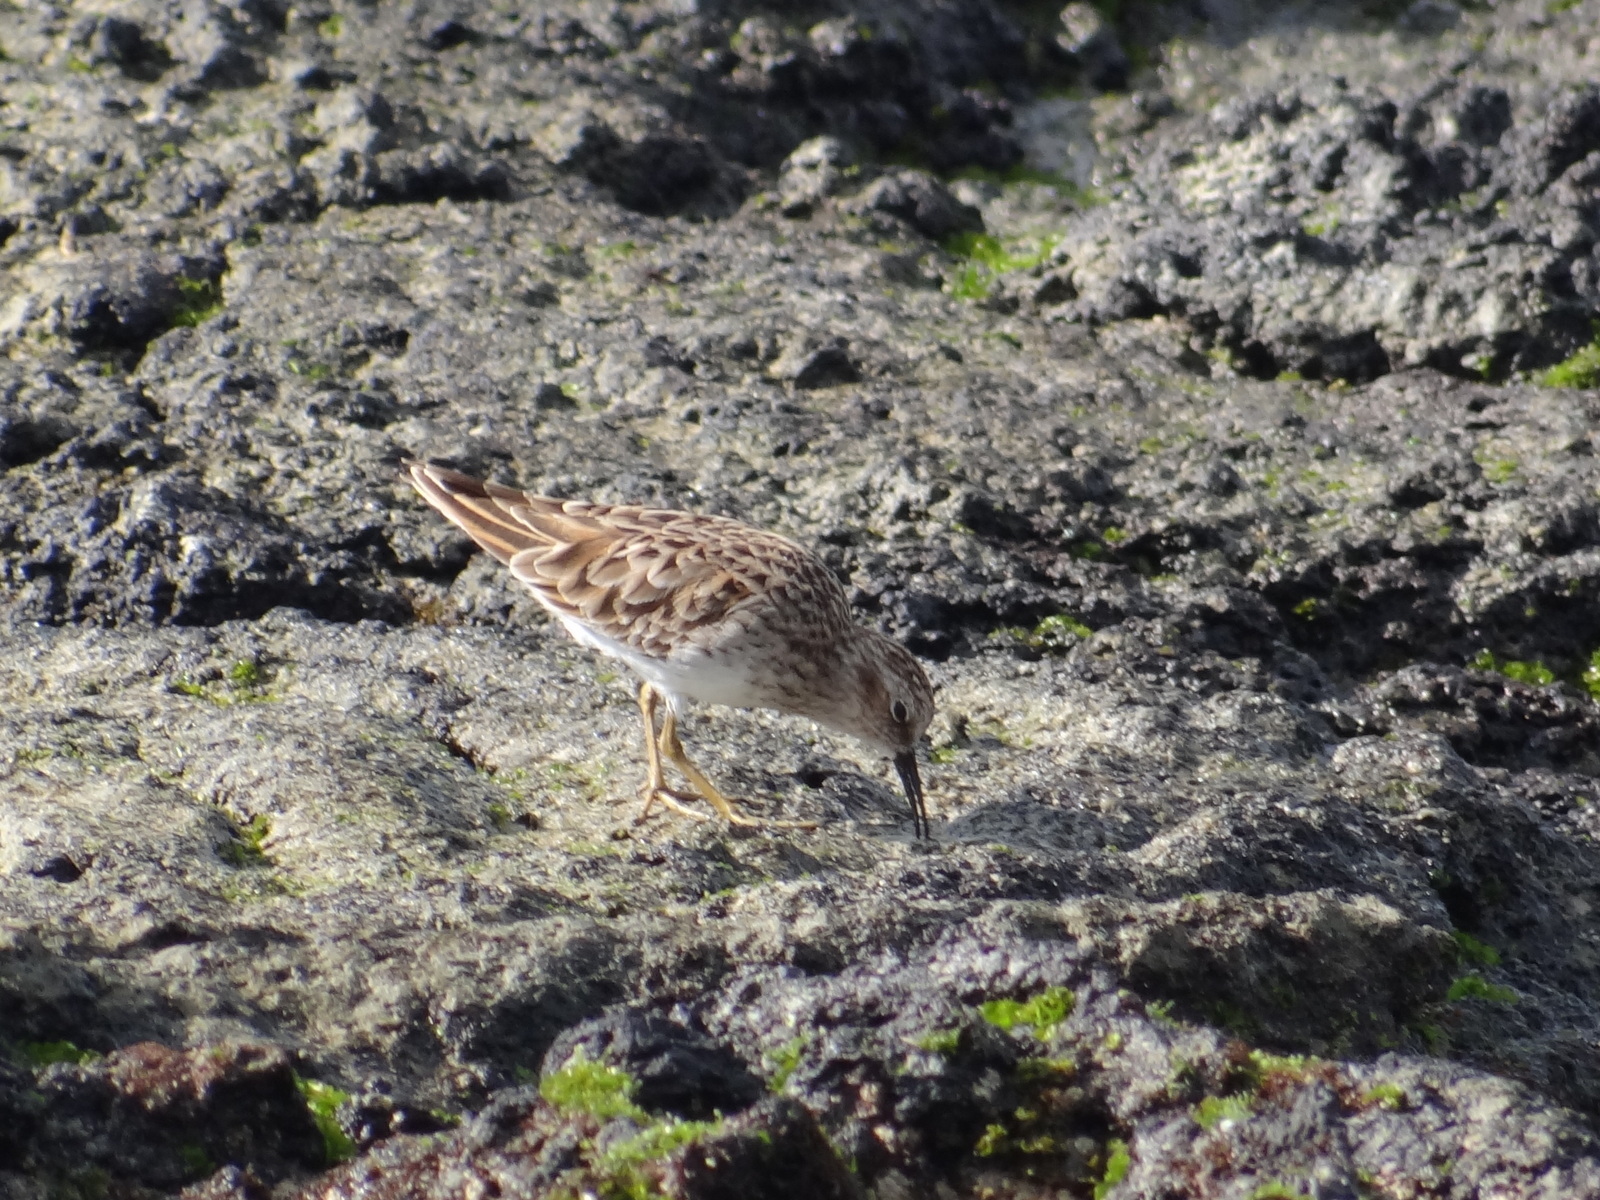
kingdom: Animalia
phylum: Chordata
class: Aves
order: Charadriiformes
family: Scolopacidae
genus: Calidris
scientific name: Calidris minutilla
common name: Least sandpiper
